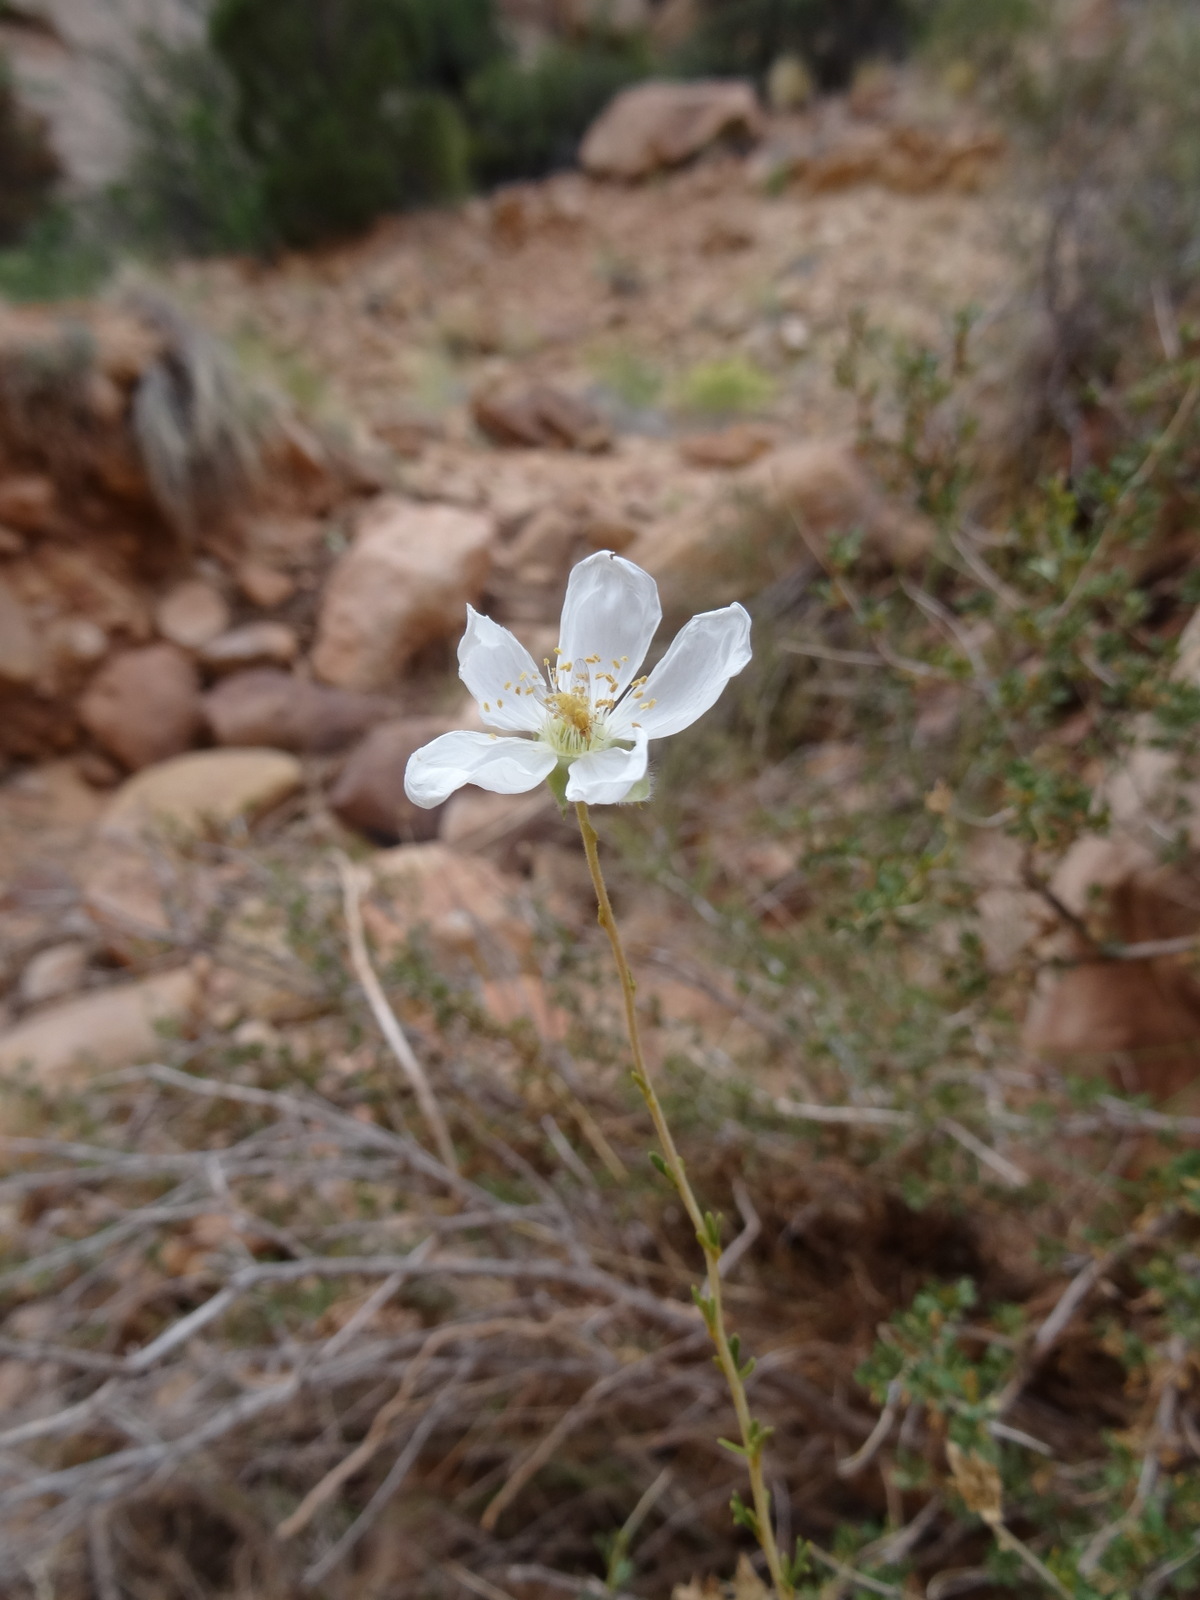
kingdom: Plantae
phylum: Tracheophyta
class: Magnoliopsida
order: Rosales
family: Rosaceae
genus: Fallugia
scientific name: Fallugia paradoxa
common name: Apache-plume
